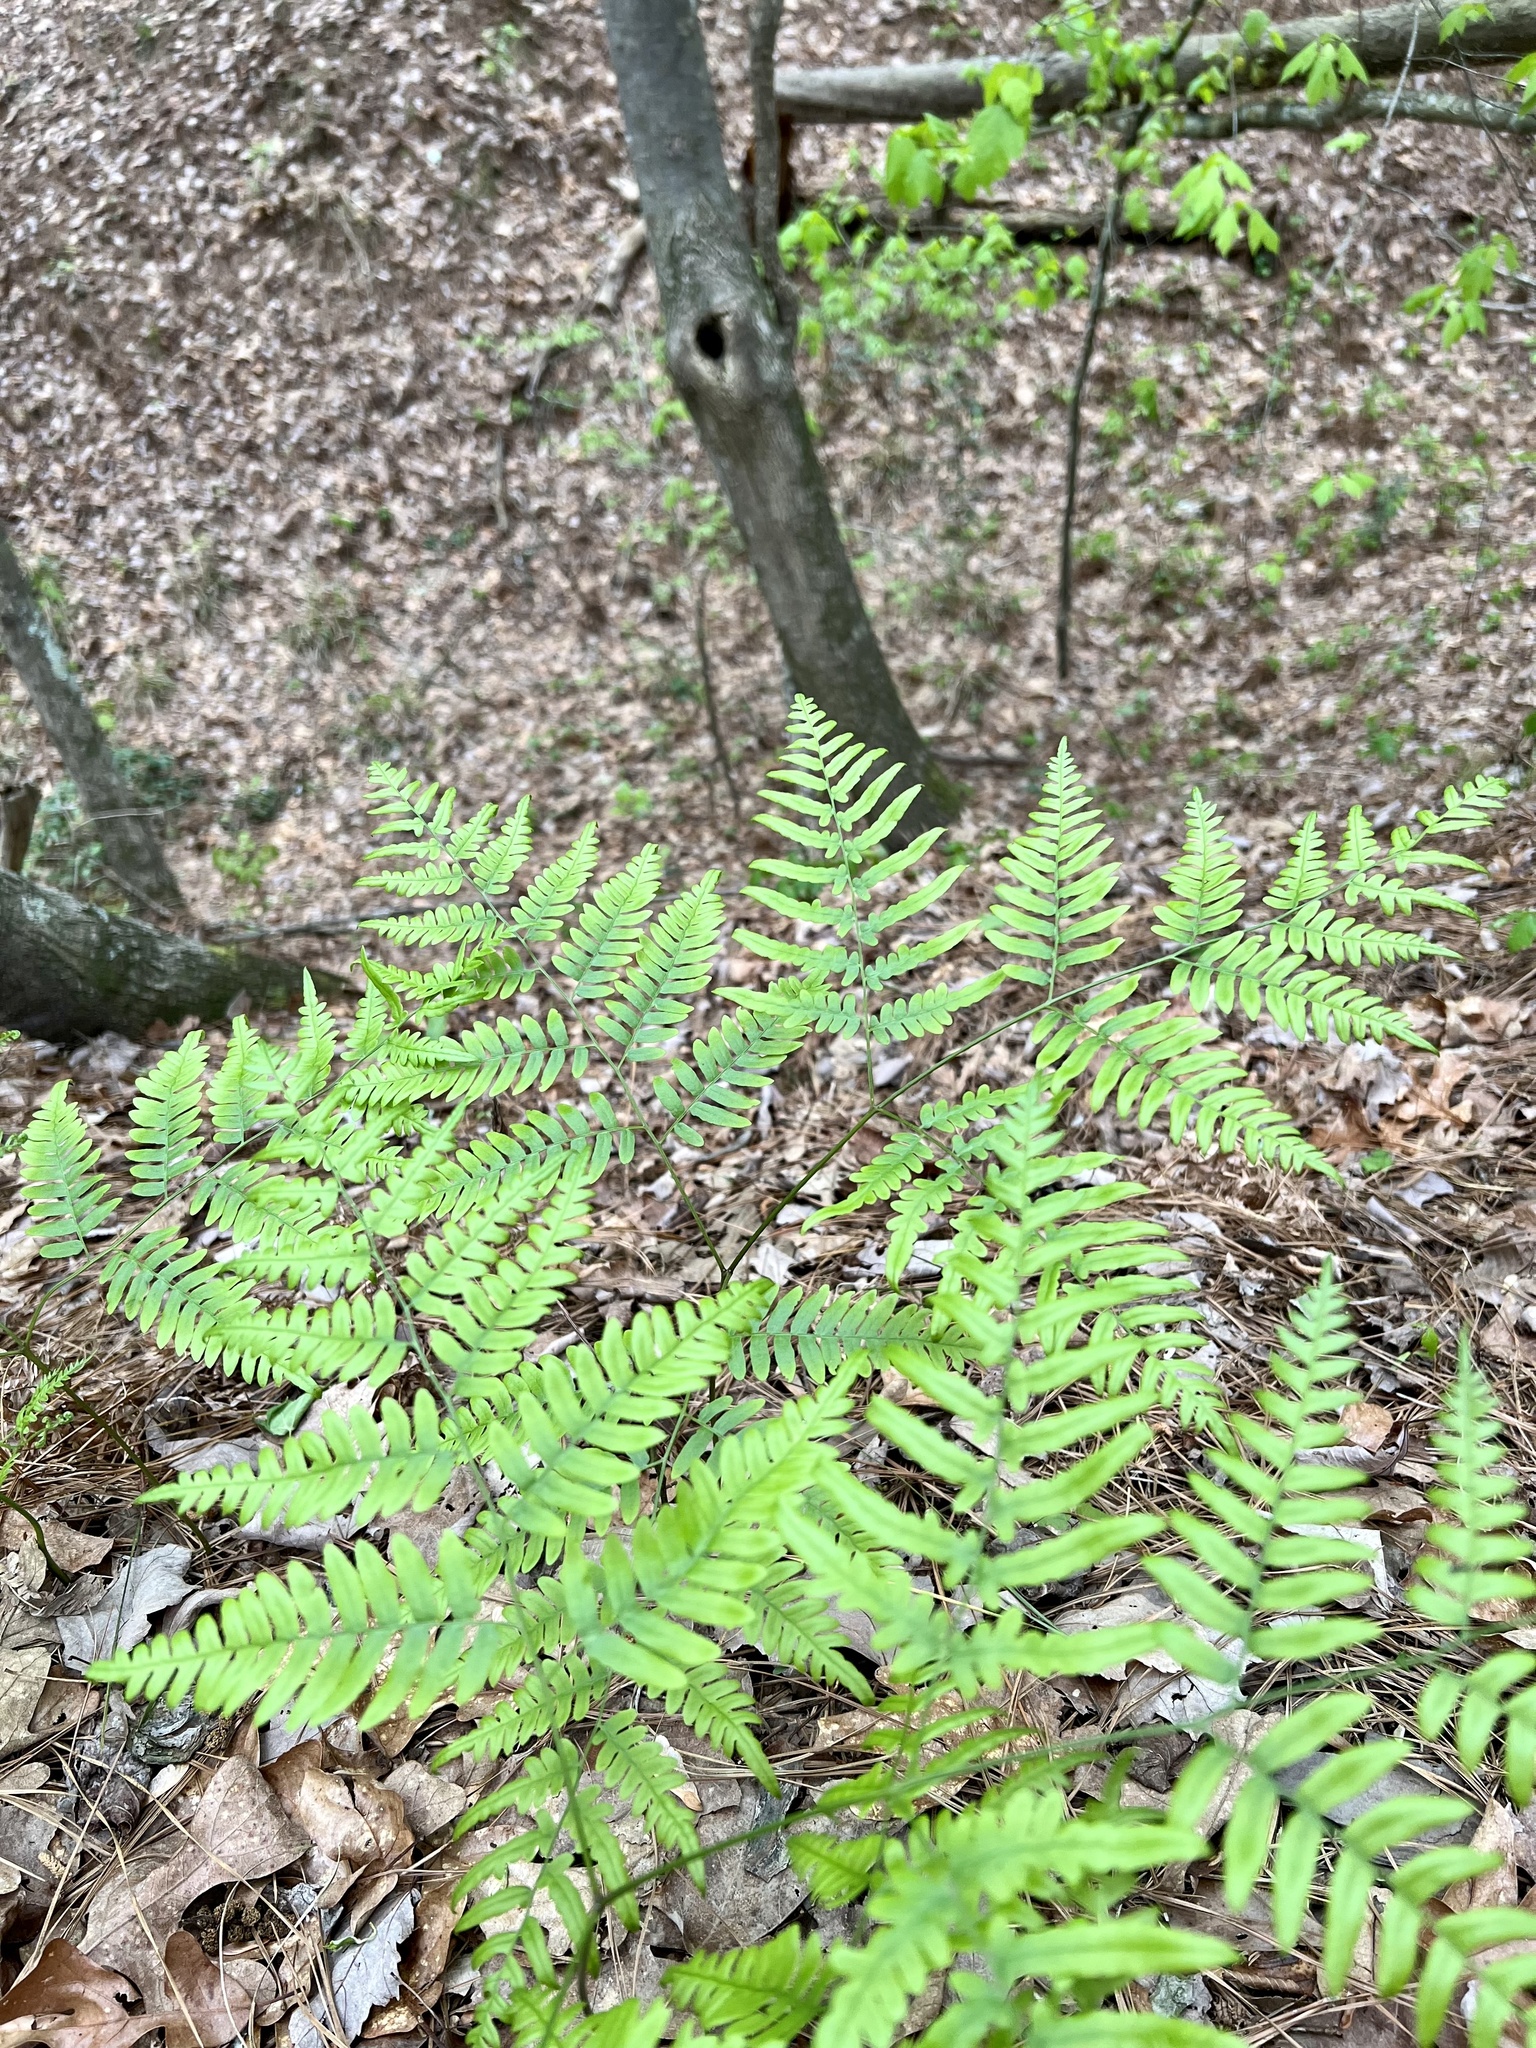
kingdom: Plantae
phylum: Tracheophyta
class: Polypodiopsida
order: Polypodiales
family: Dennstaedtiaceae
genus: Pteridium
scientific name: Pteridium aquilinum
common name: Bracken
